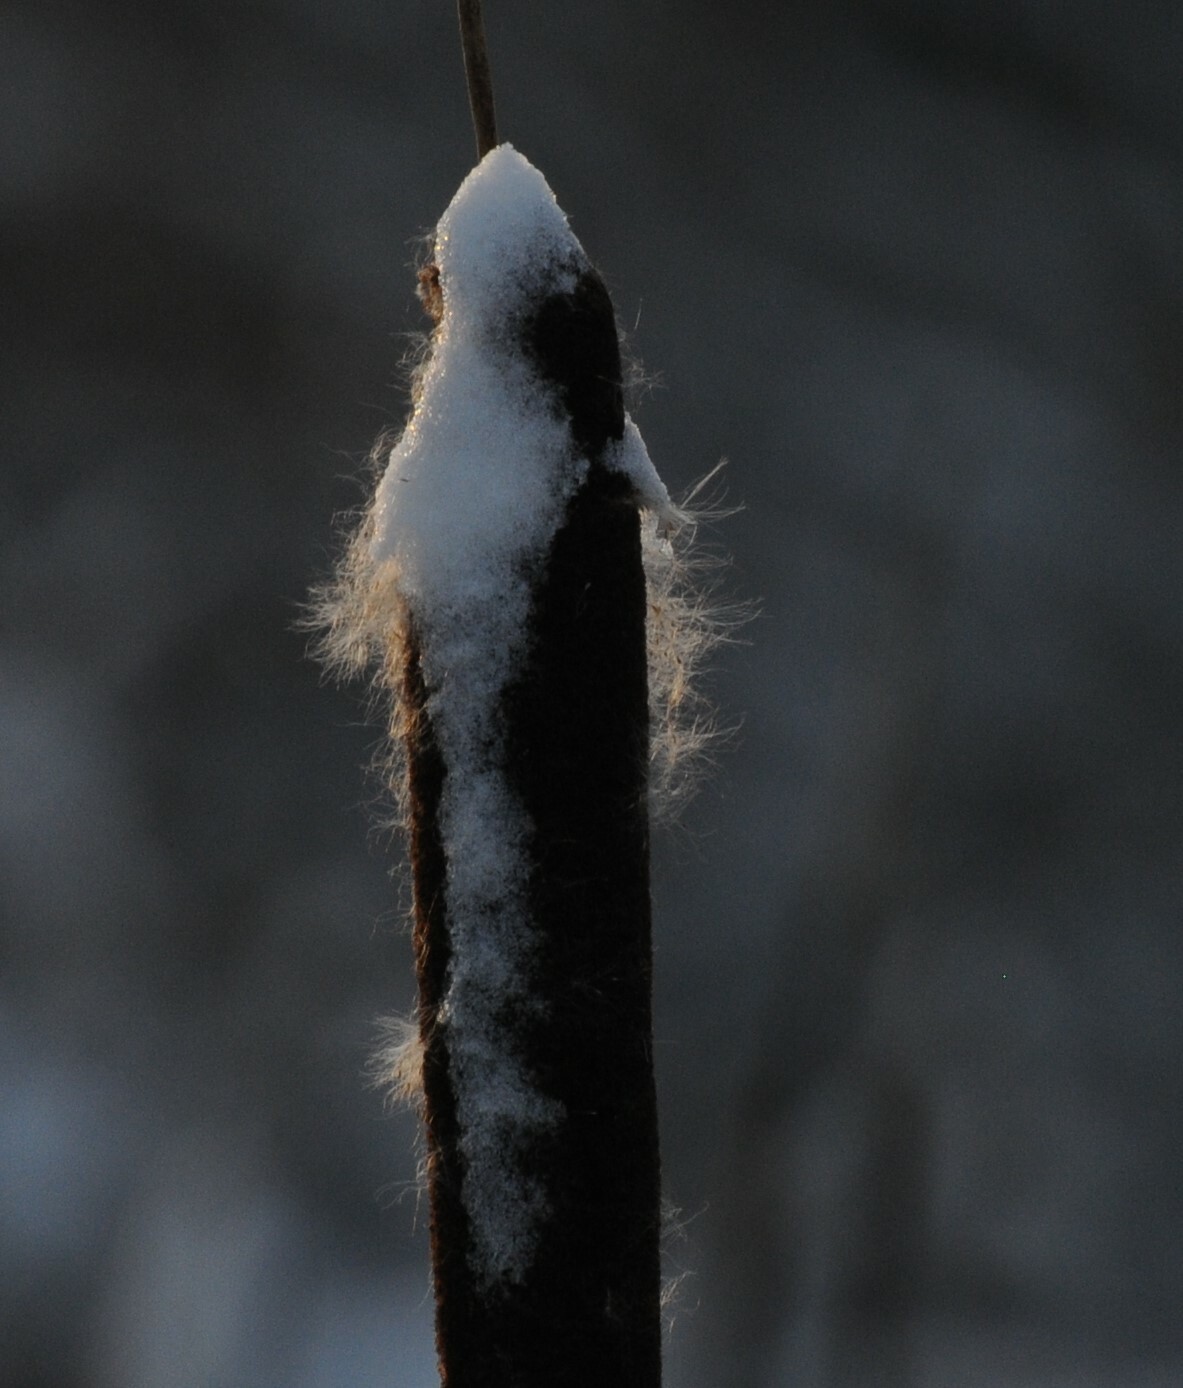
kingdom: Plantae
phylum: Tracheophyta
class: Liliopsida
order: Poales
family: Typhaceae
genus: Typha
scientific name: Typha latifolia
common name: Broadleaf cattail
